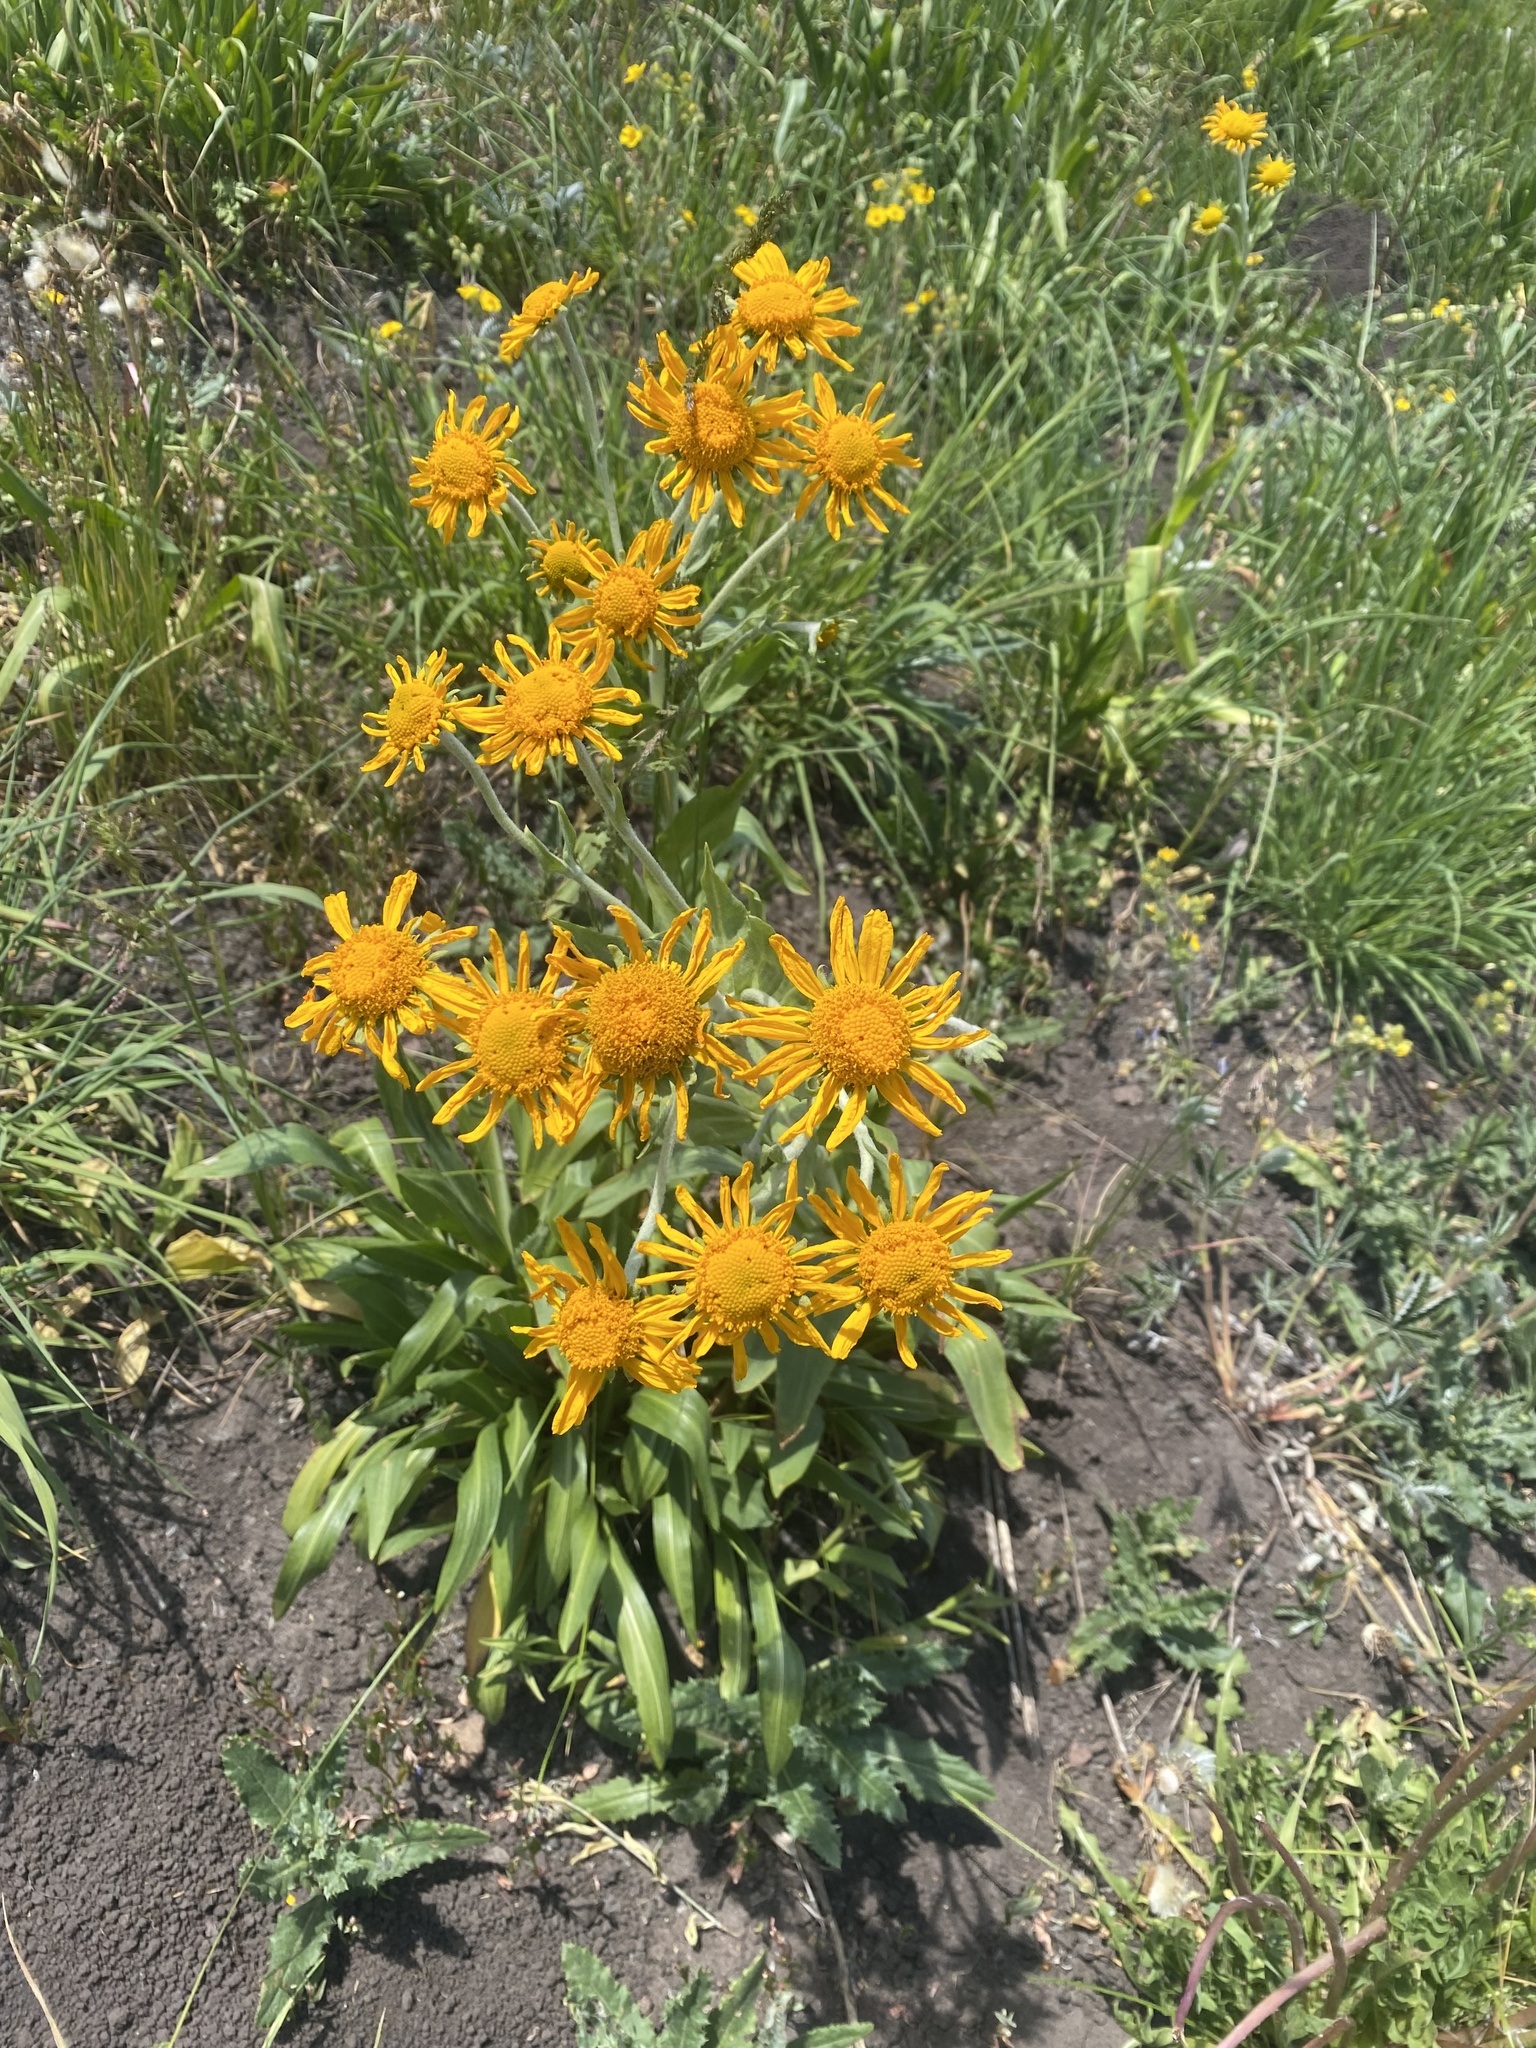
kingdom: Plantae
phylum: Tracheophyta
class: Magnoliopsida
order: Asterales
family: Asteraceae
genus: Hymenoxys
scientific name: Hymenoxys hoopesii
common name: Orange-sneezeweed
